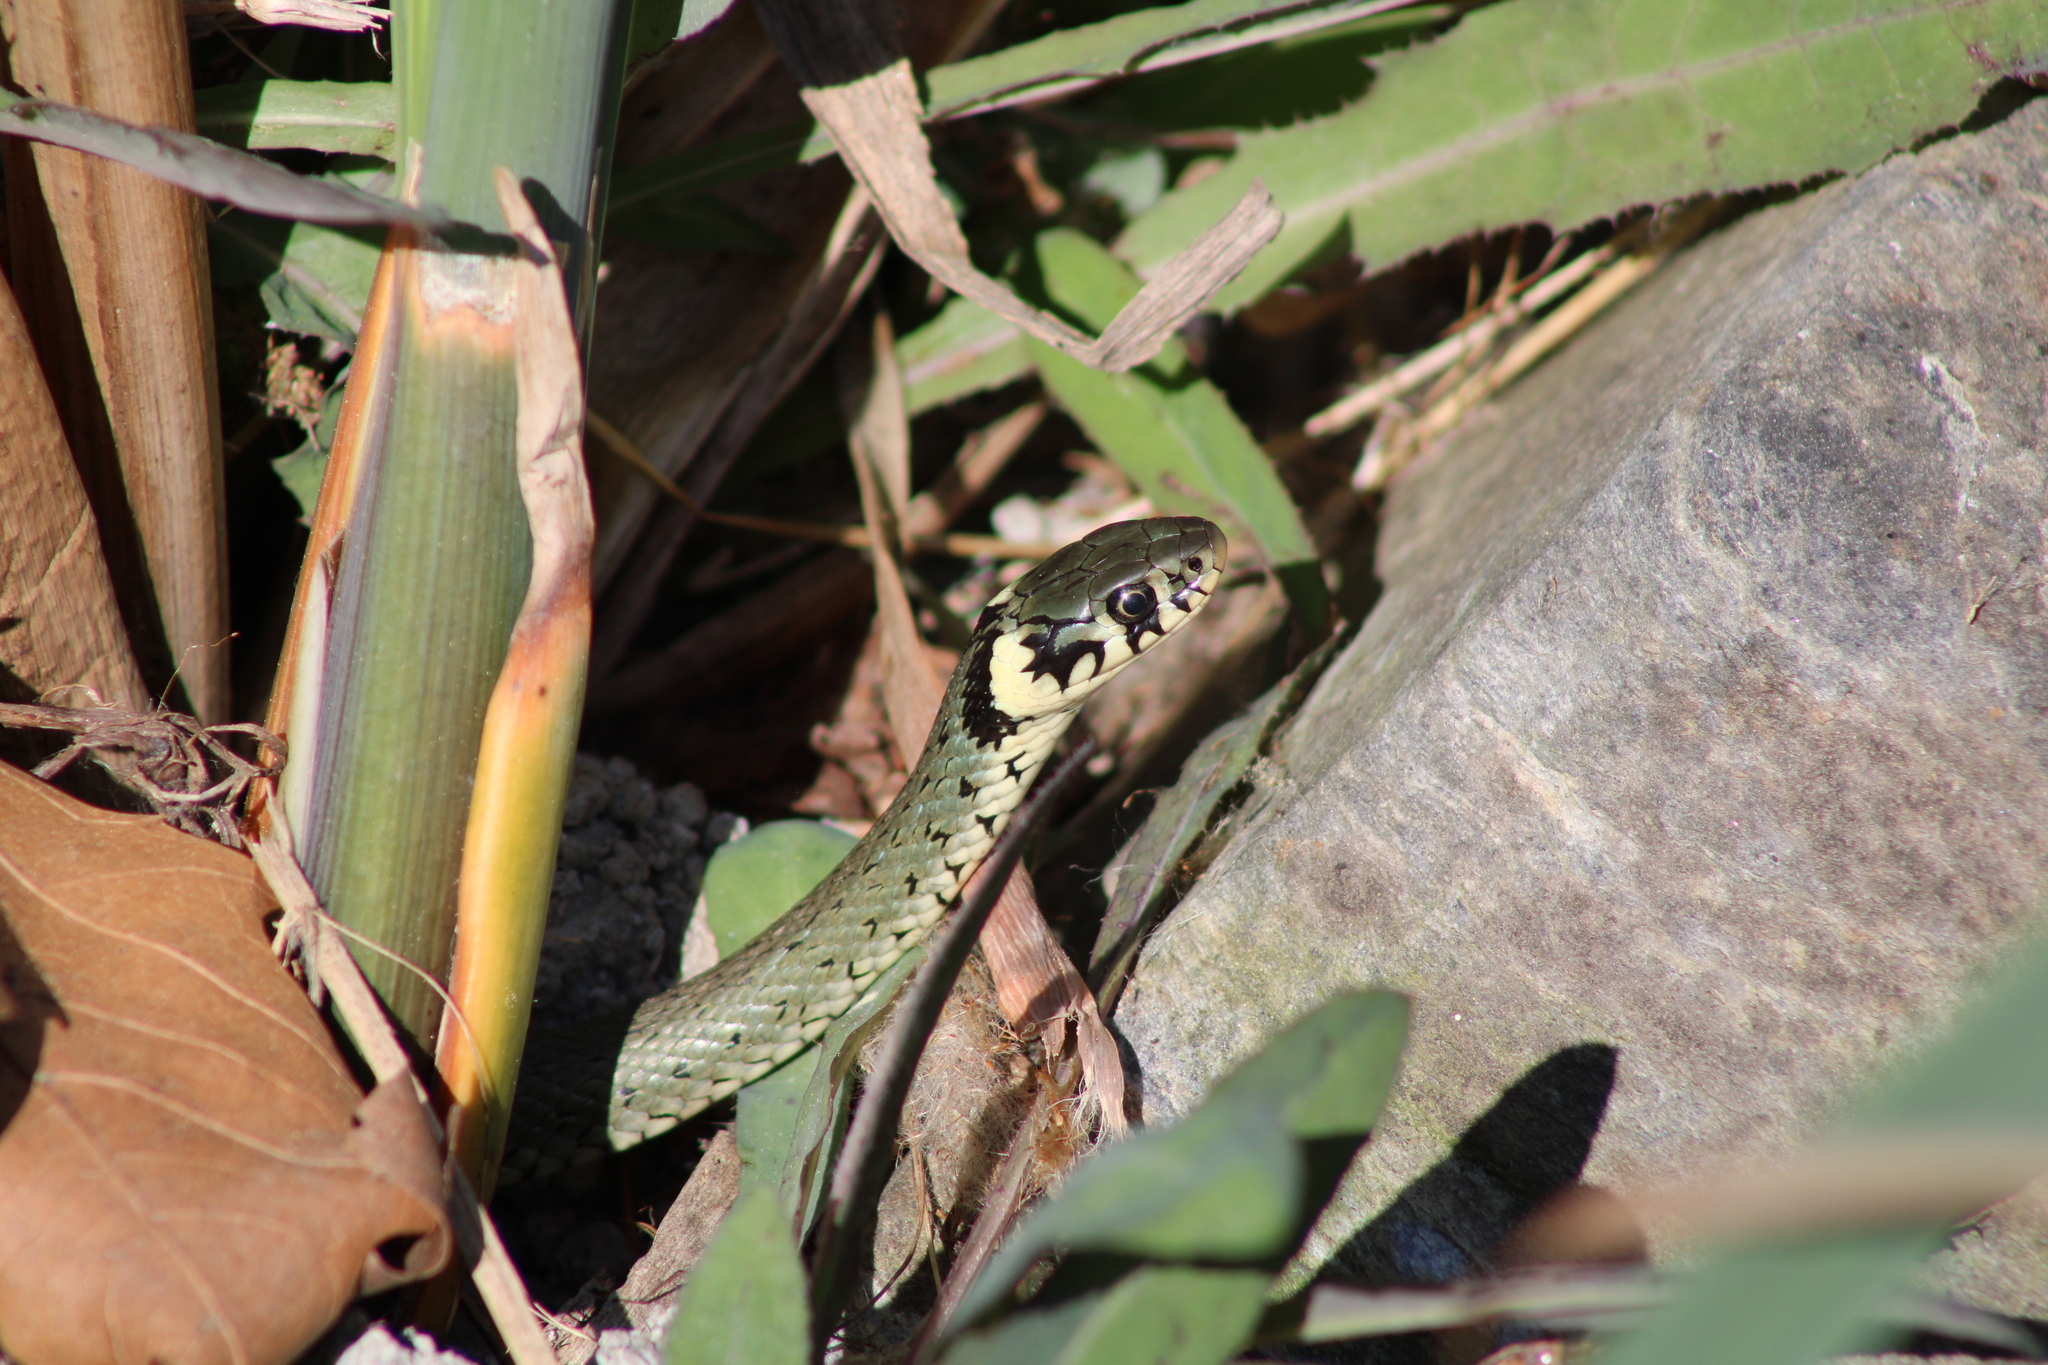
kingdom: Animalia
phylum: Chordata
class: Squamata
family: Colubridae
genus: Natrix
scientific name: Natrix natrix
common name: Grass snake
